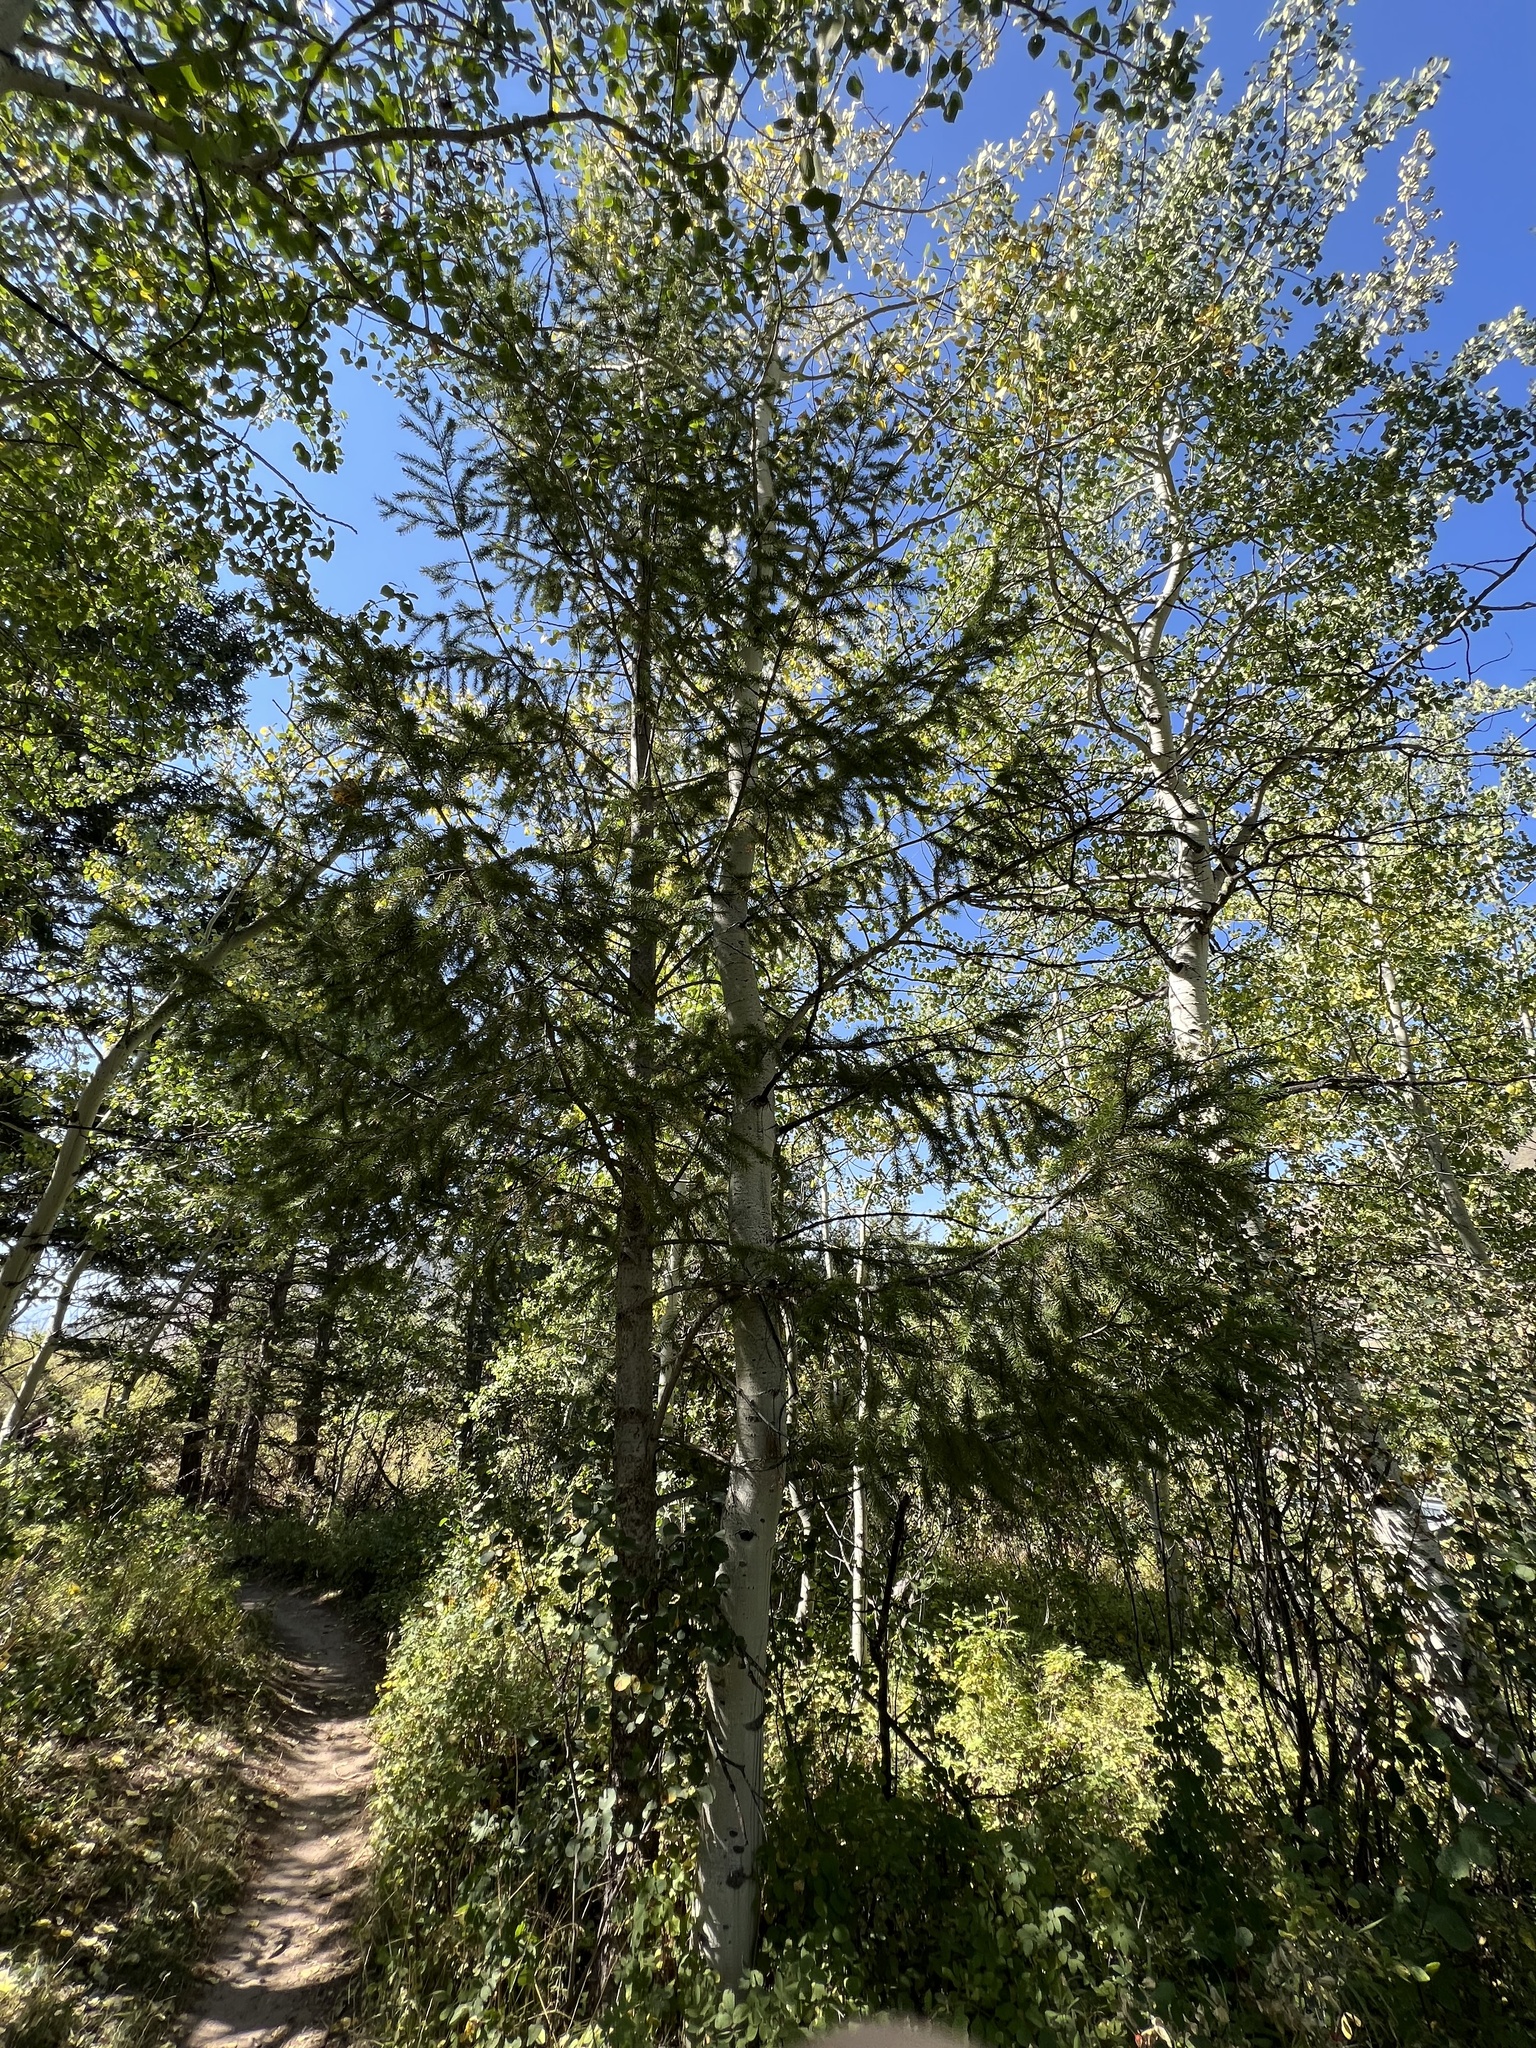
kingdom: Plantae
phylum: Tracheophyta
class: Pinopsida
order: Pinales
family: Pinaceae
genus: Pseudotsuga
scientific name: Pseudotsuga menziesii
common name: Douglas fir
